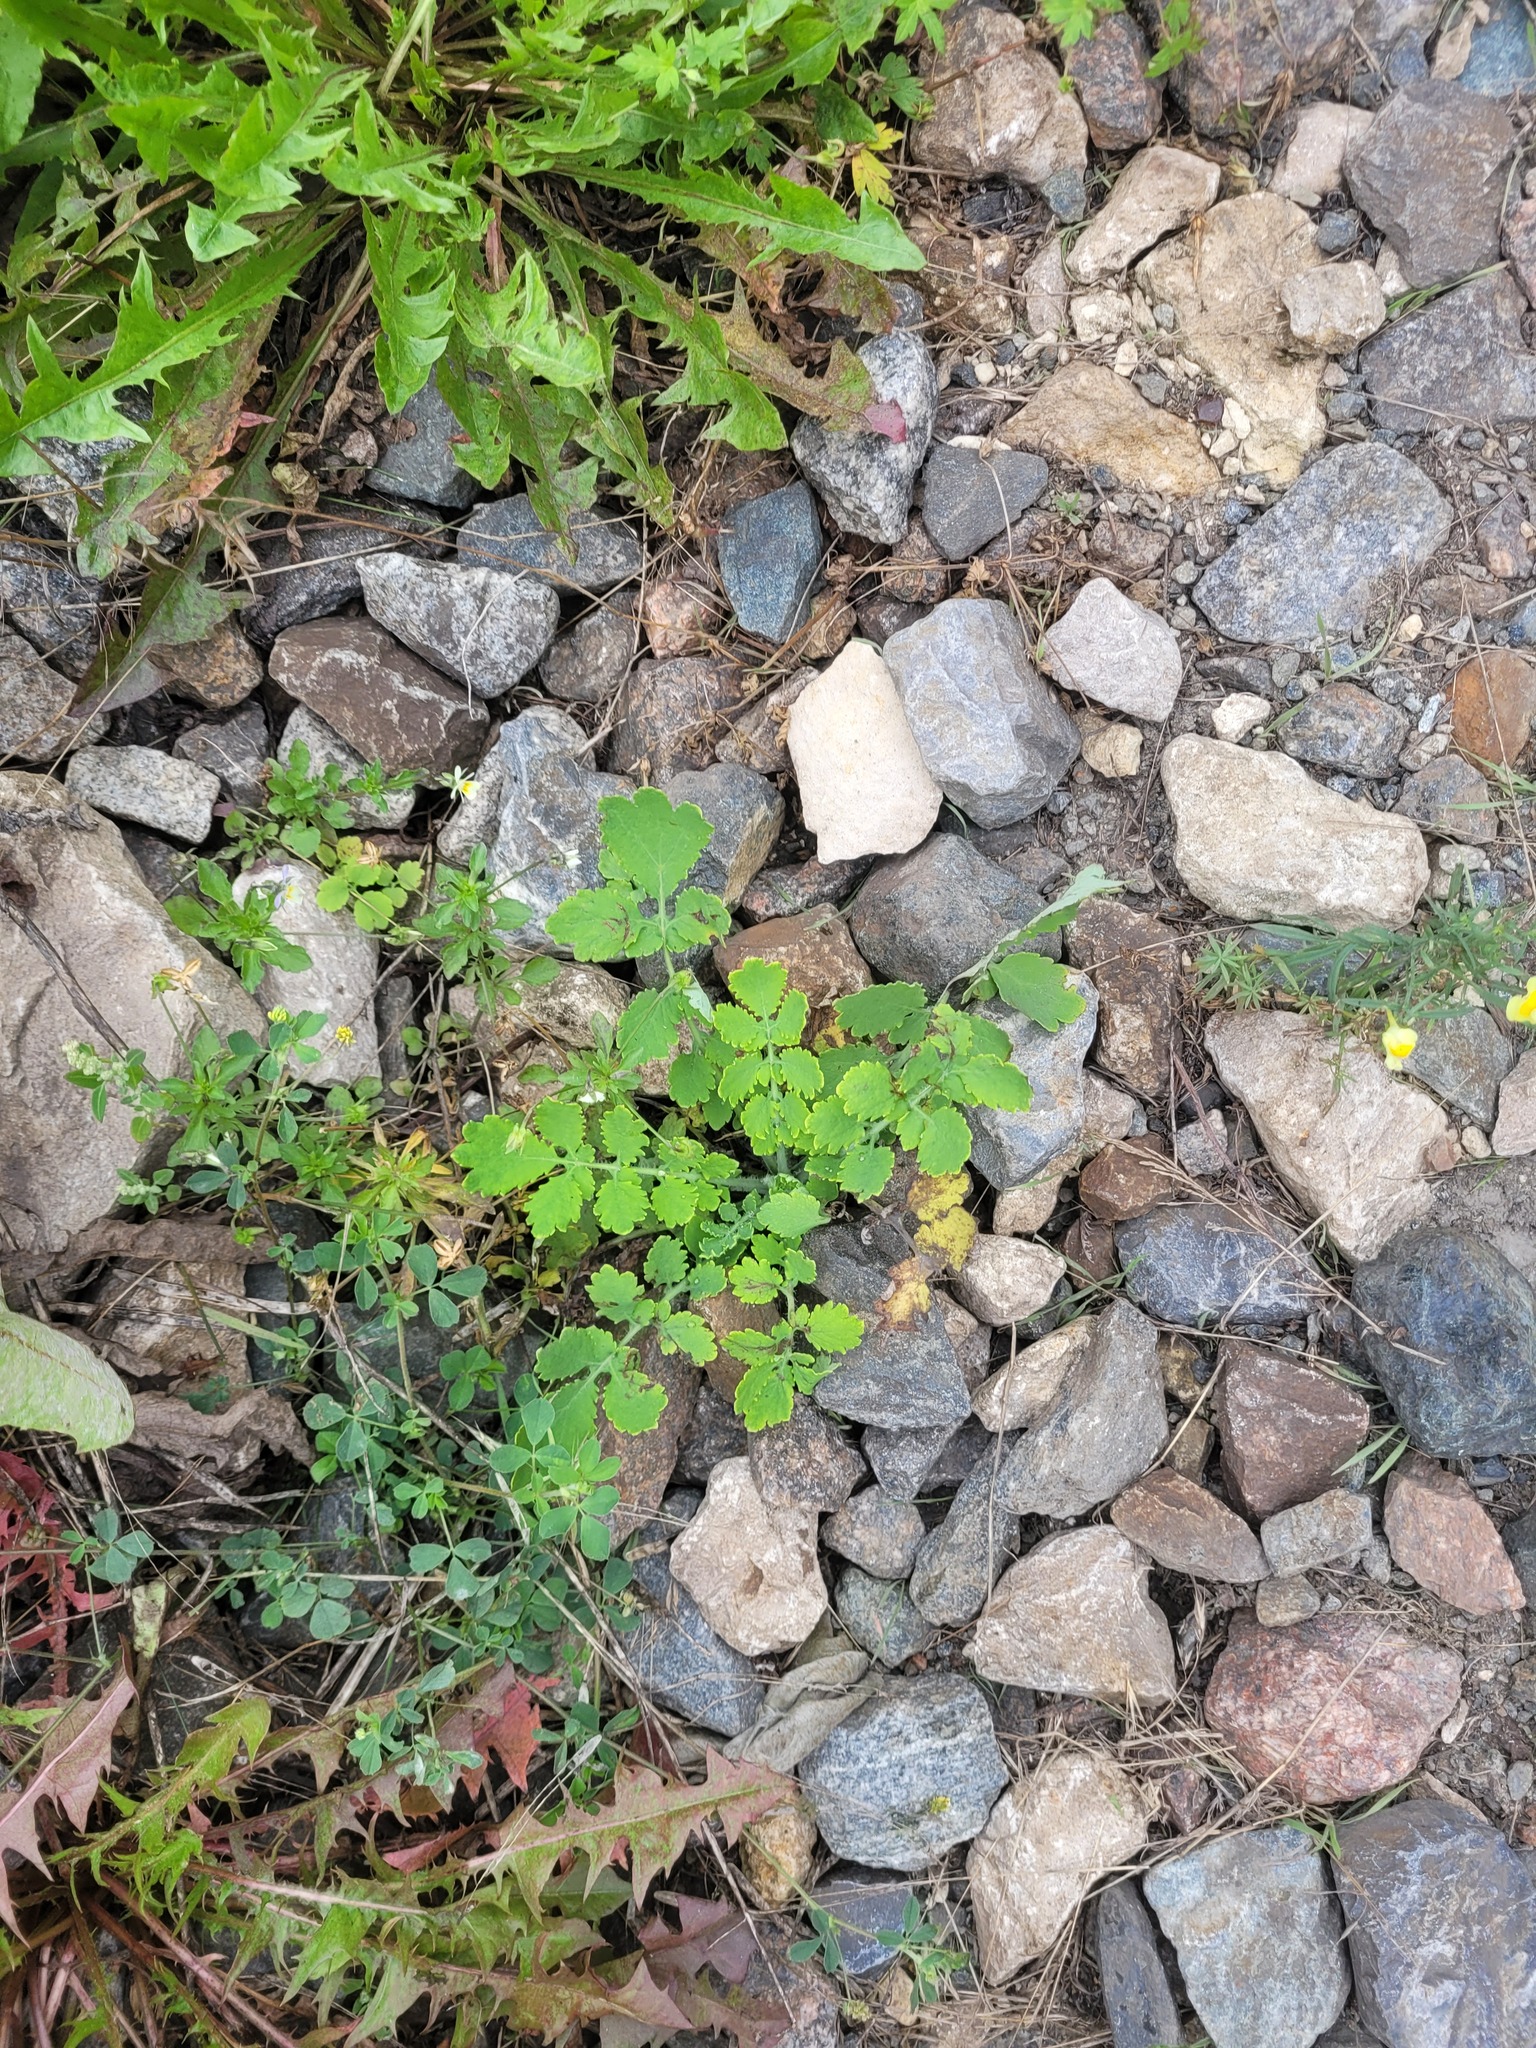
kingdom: Plantae
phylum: Tracheophyta
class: Magnoliopsida
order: Ranunculales
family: Papaveraceae
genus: Chelidonium
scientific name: Chelidonium majus
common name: Greater celandine
